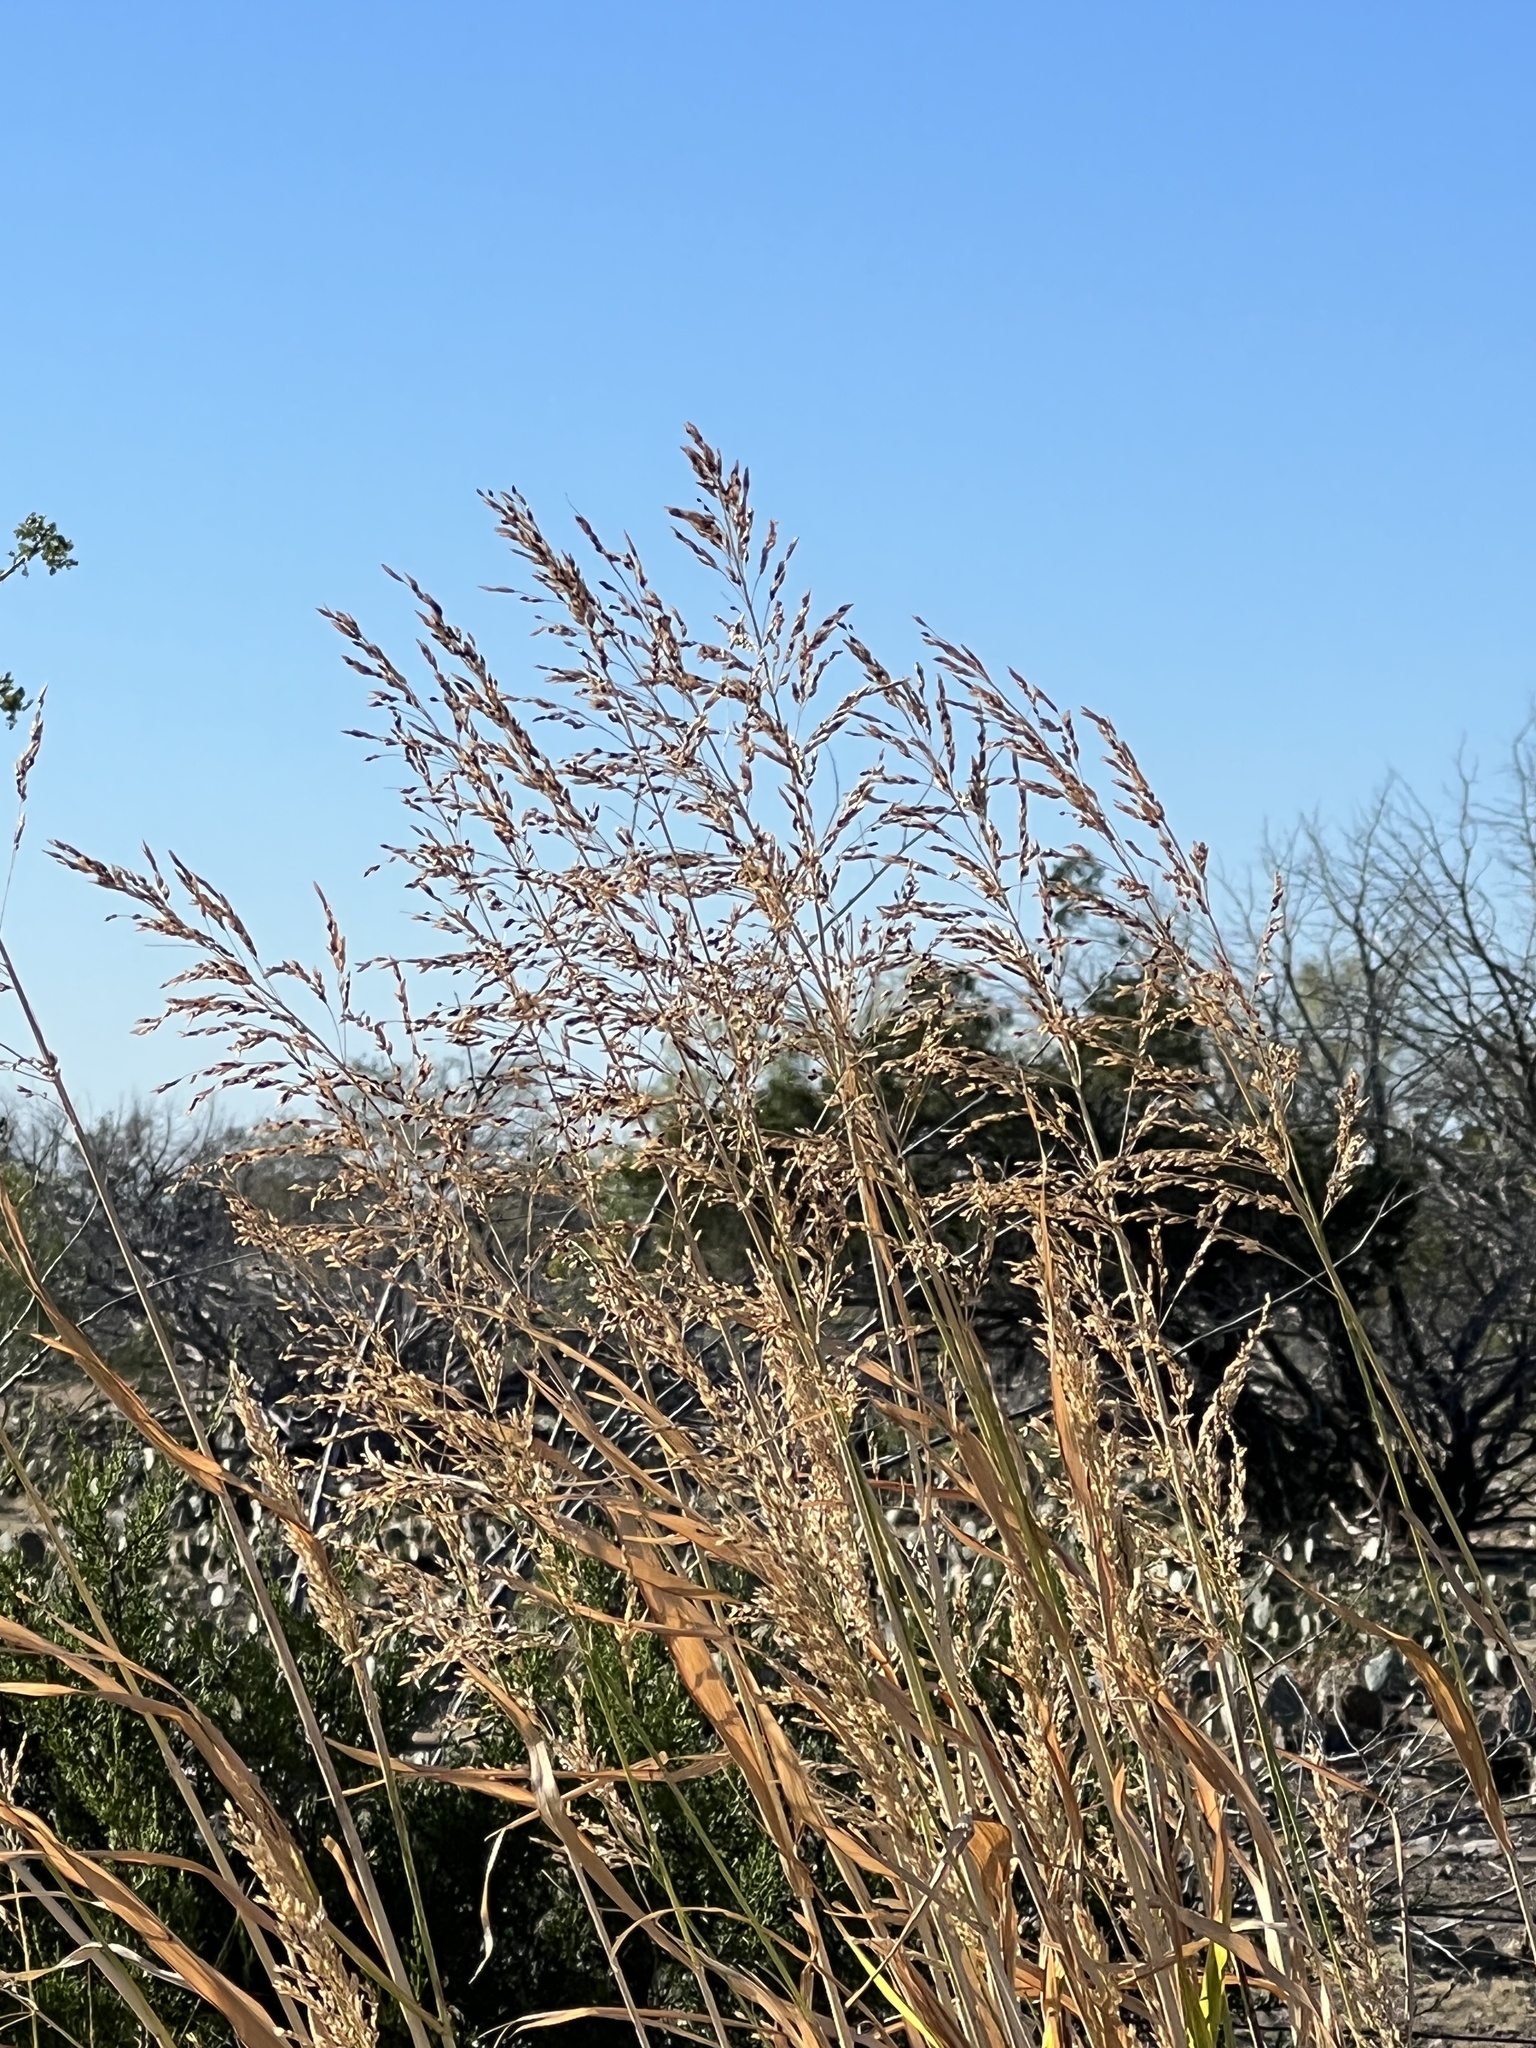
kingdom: Plantae
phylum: Tracheophyta
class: Liliopsida
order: Poales
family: Poaceae
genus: Sorghum
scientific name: Sorghum halepense
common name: Johnson-grass
